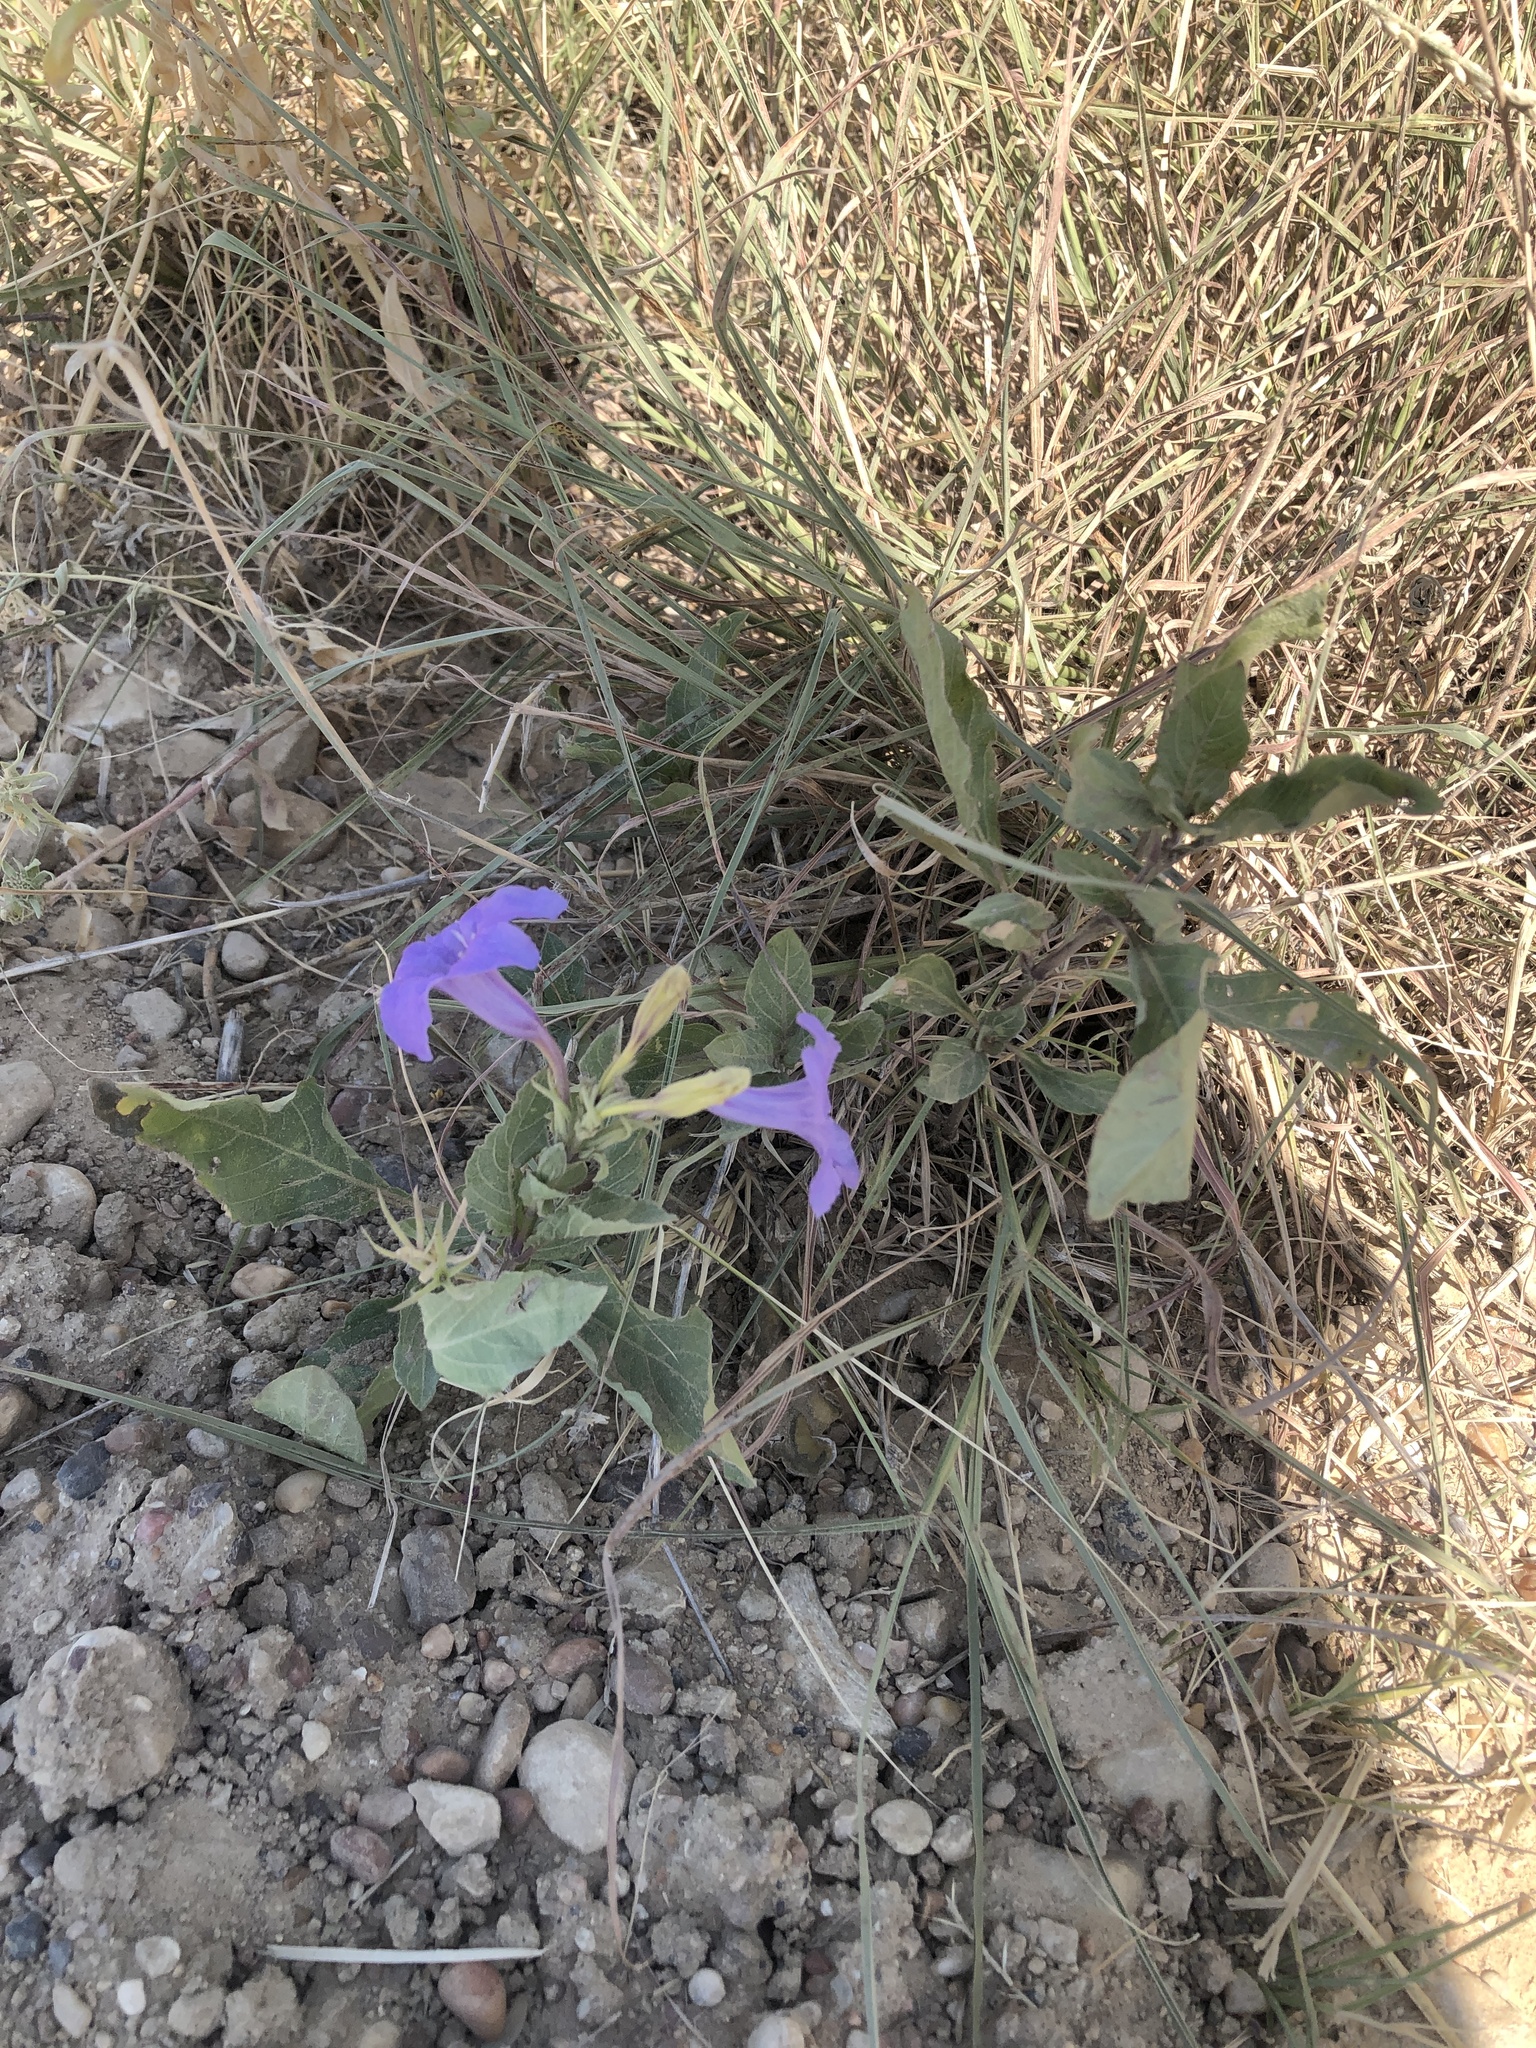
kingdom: Plantae
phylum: Tracheophyta
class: Magnoliopsida
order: Lamiales
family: Acanthaceae
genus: Ruellia
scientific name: Ruellia ciliatiflora
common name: Hairyflower wild petunia
